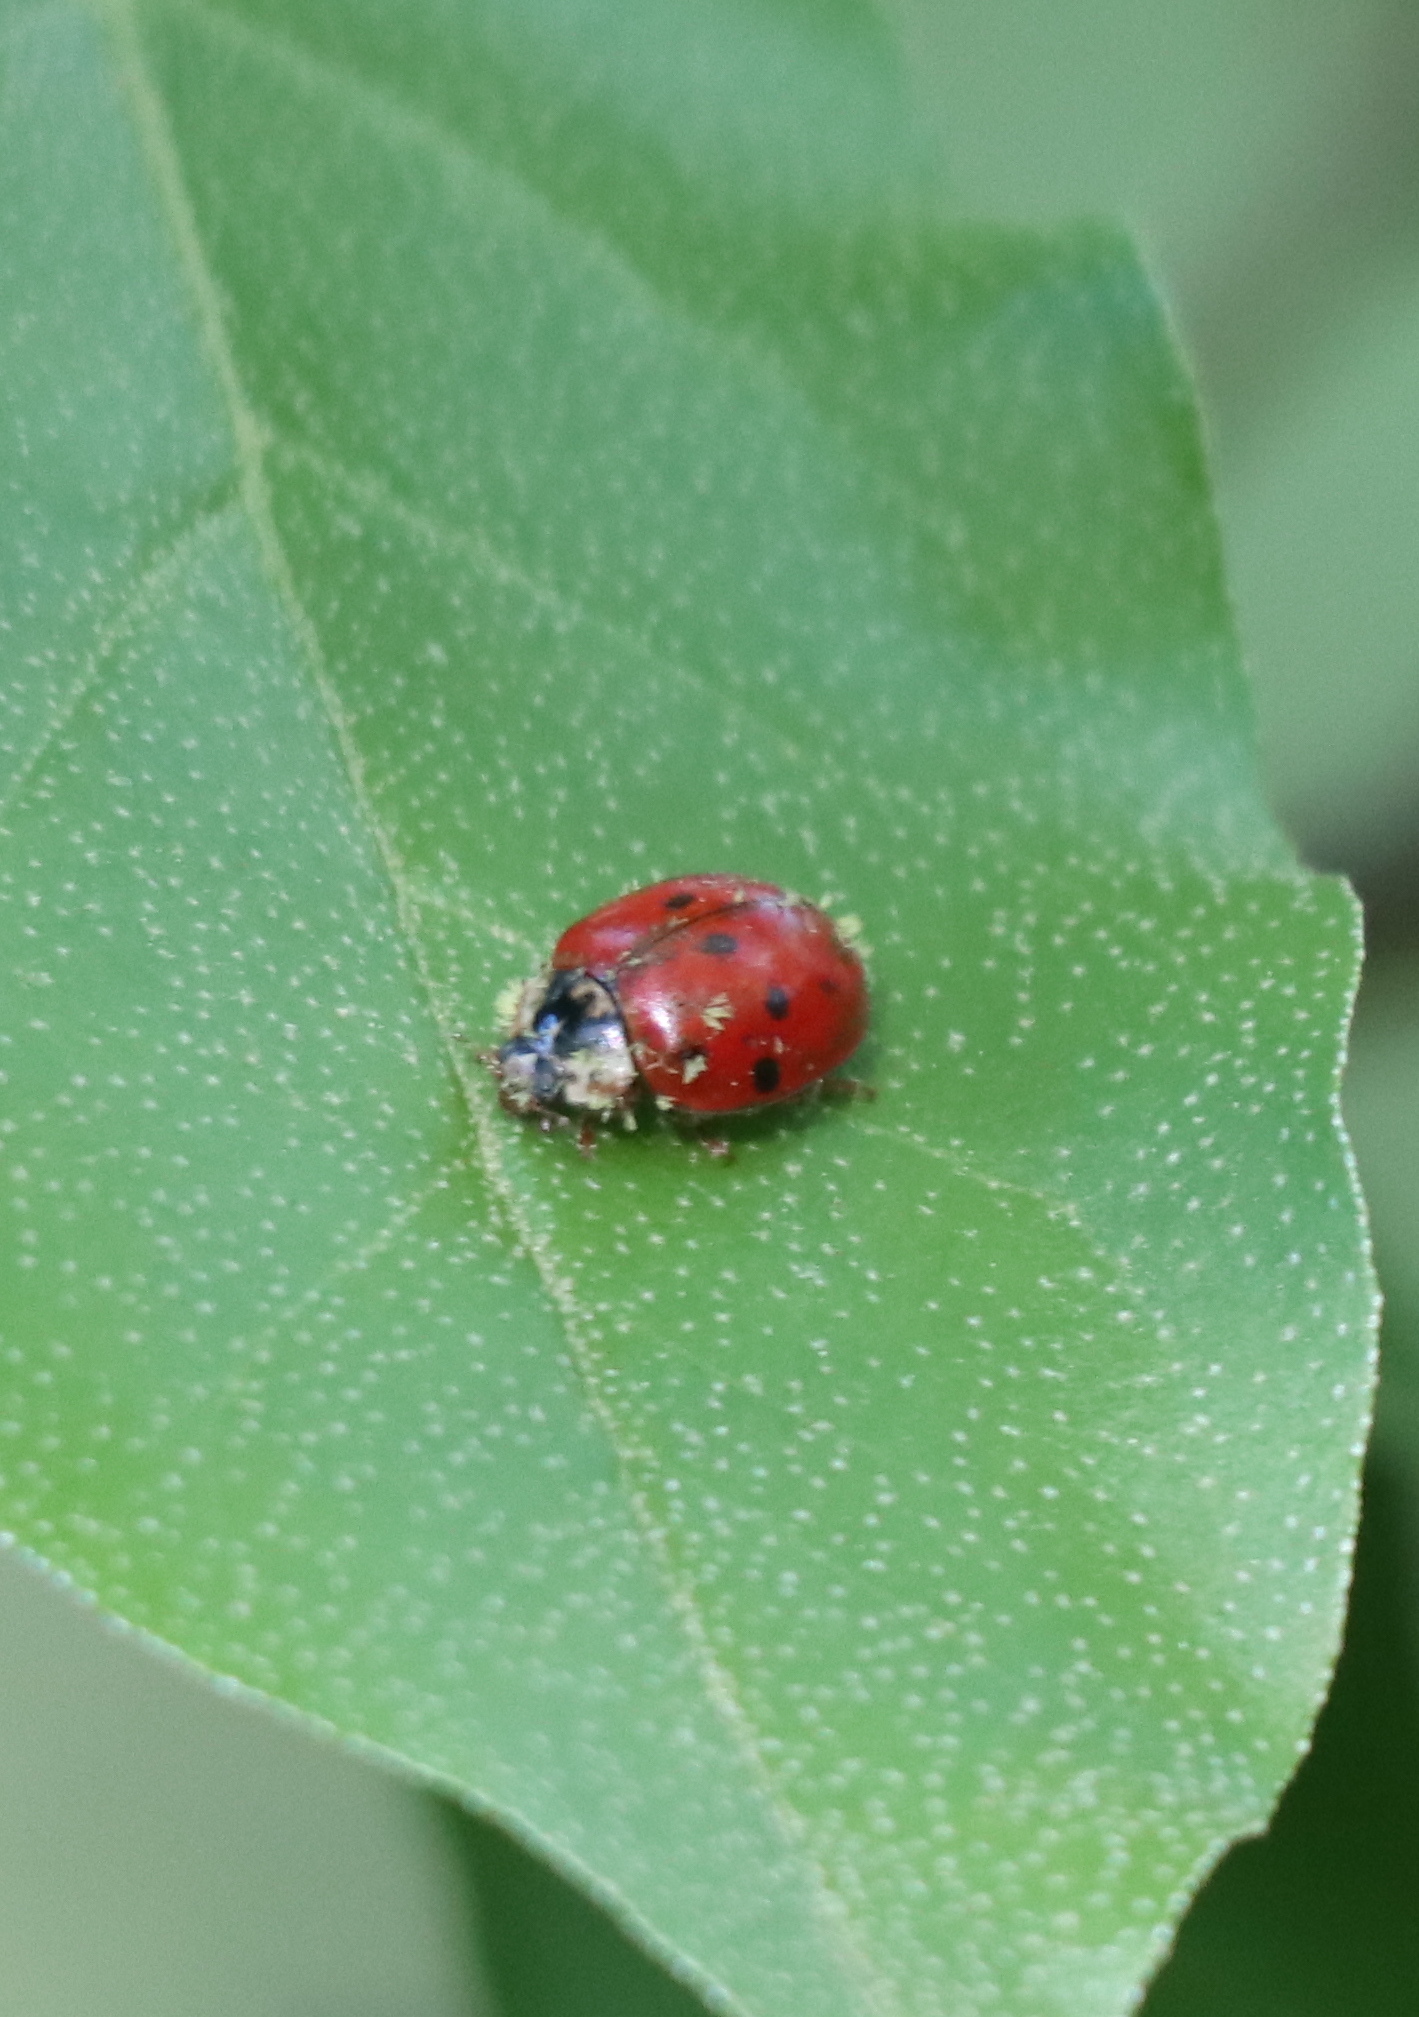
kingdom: Animalia
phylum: Arthropoda
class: Insecta
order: Coleoptera
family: Coccinellidae
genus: Harmonia
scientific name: Harmonia axyridis
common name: Harlequin ladybird
